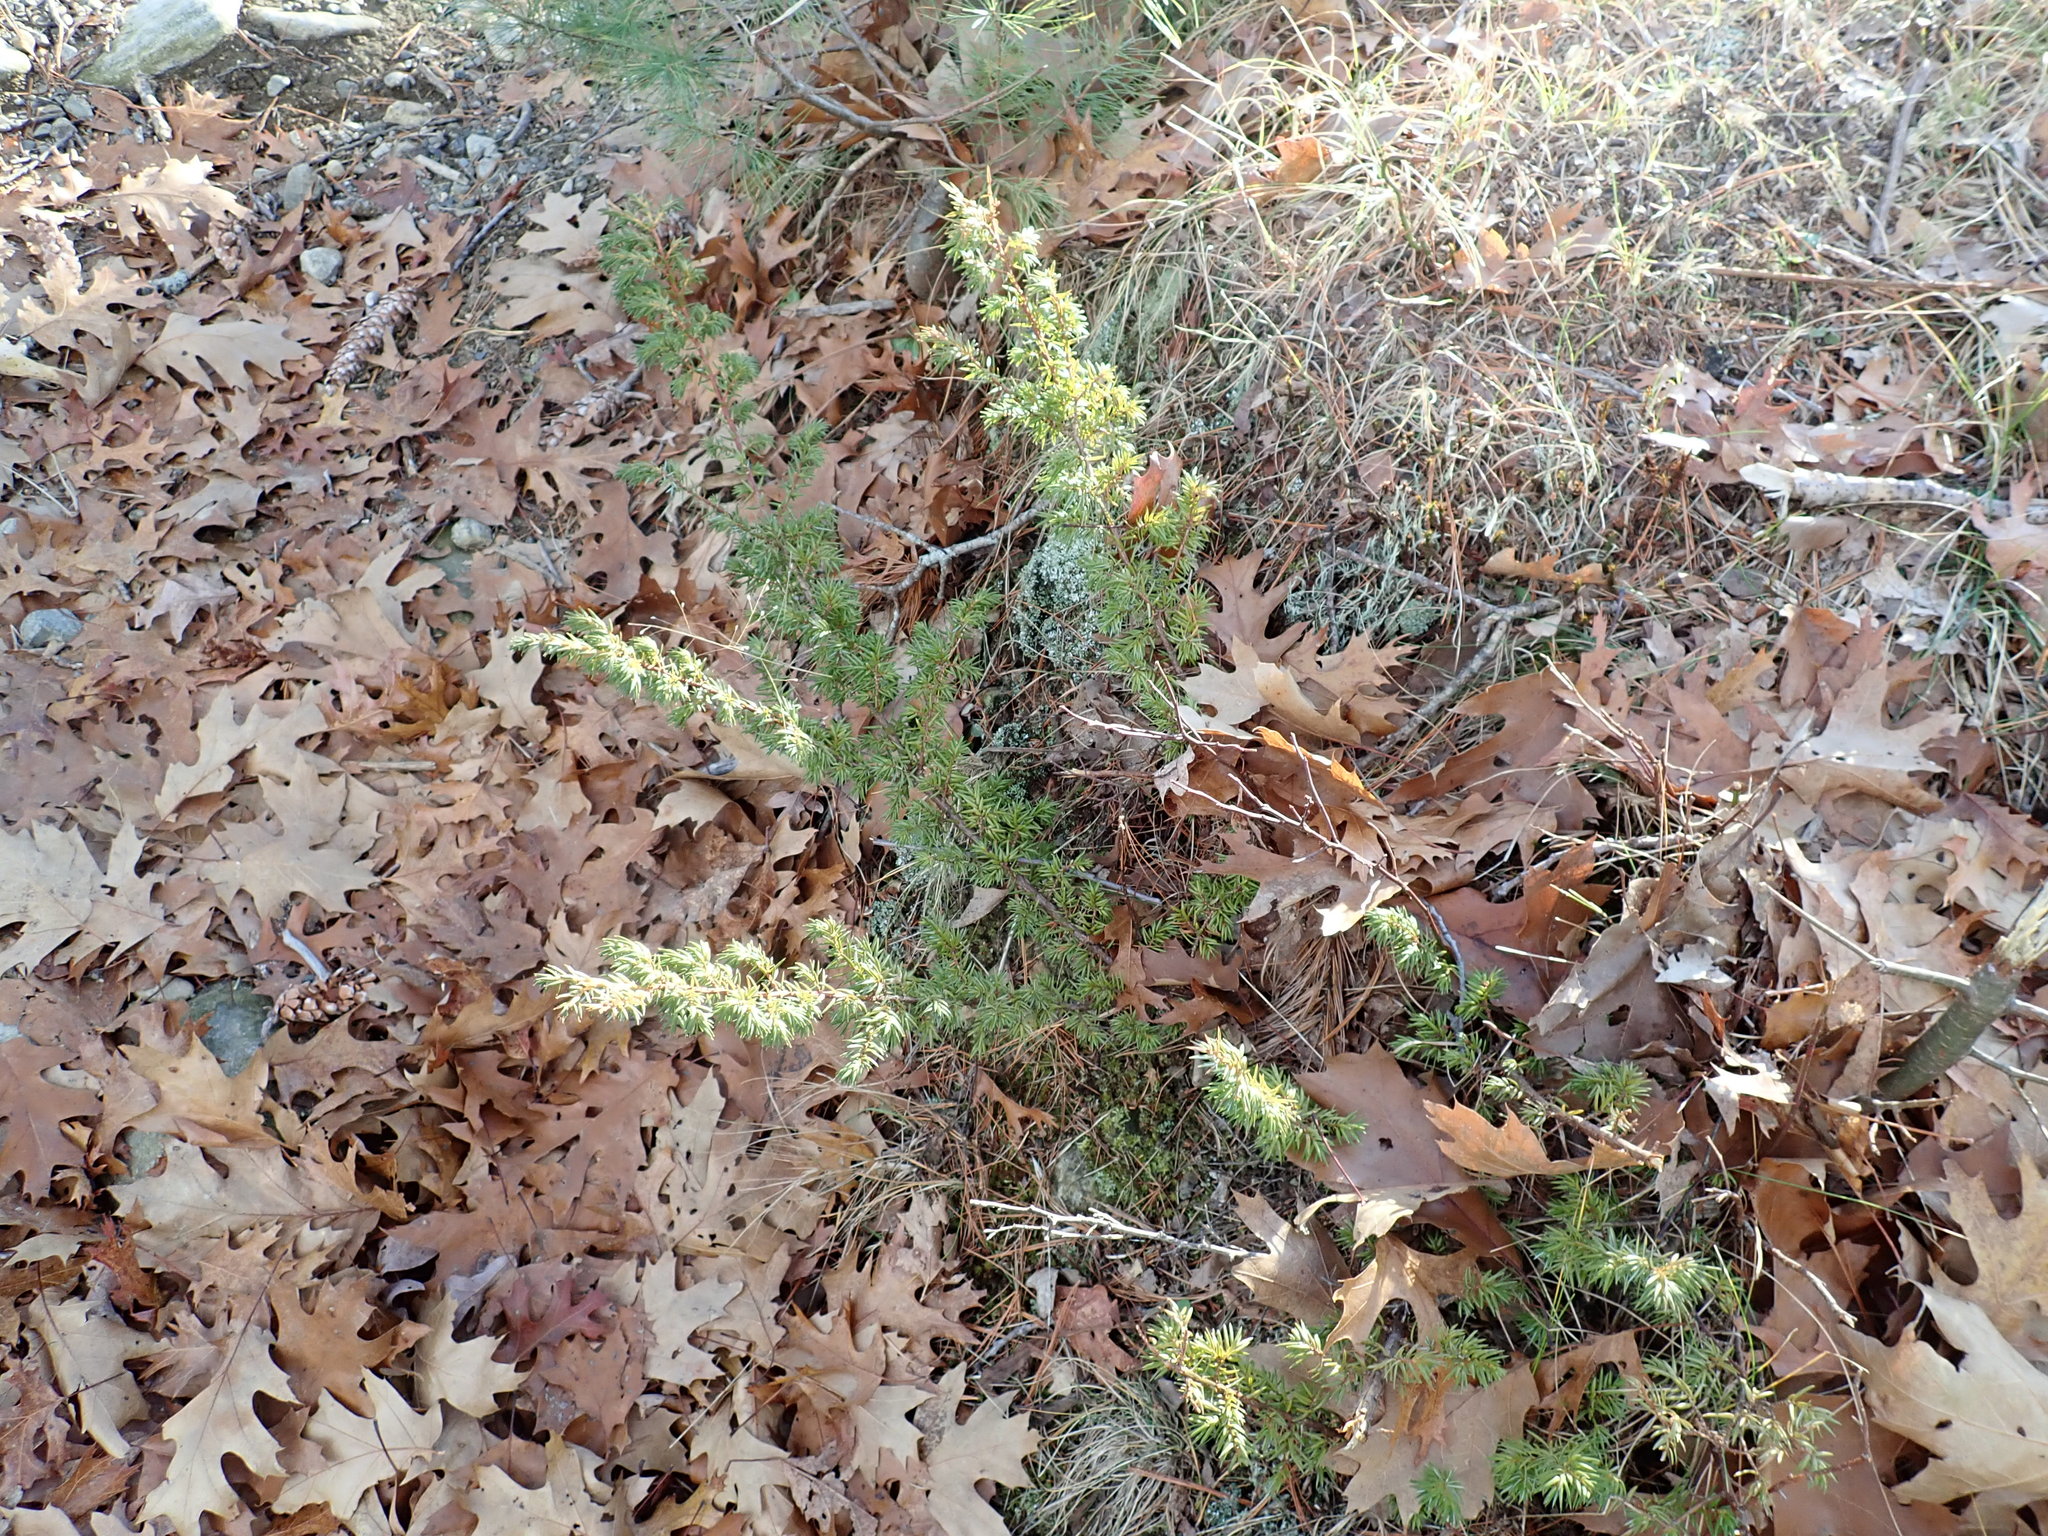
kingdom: Plantae
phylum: Tracheophyta
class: Pinopsida
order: Pinales
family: Cupressaceae
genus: Juniperus
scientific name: Juniperus communis
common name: Common juniper
